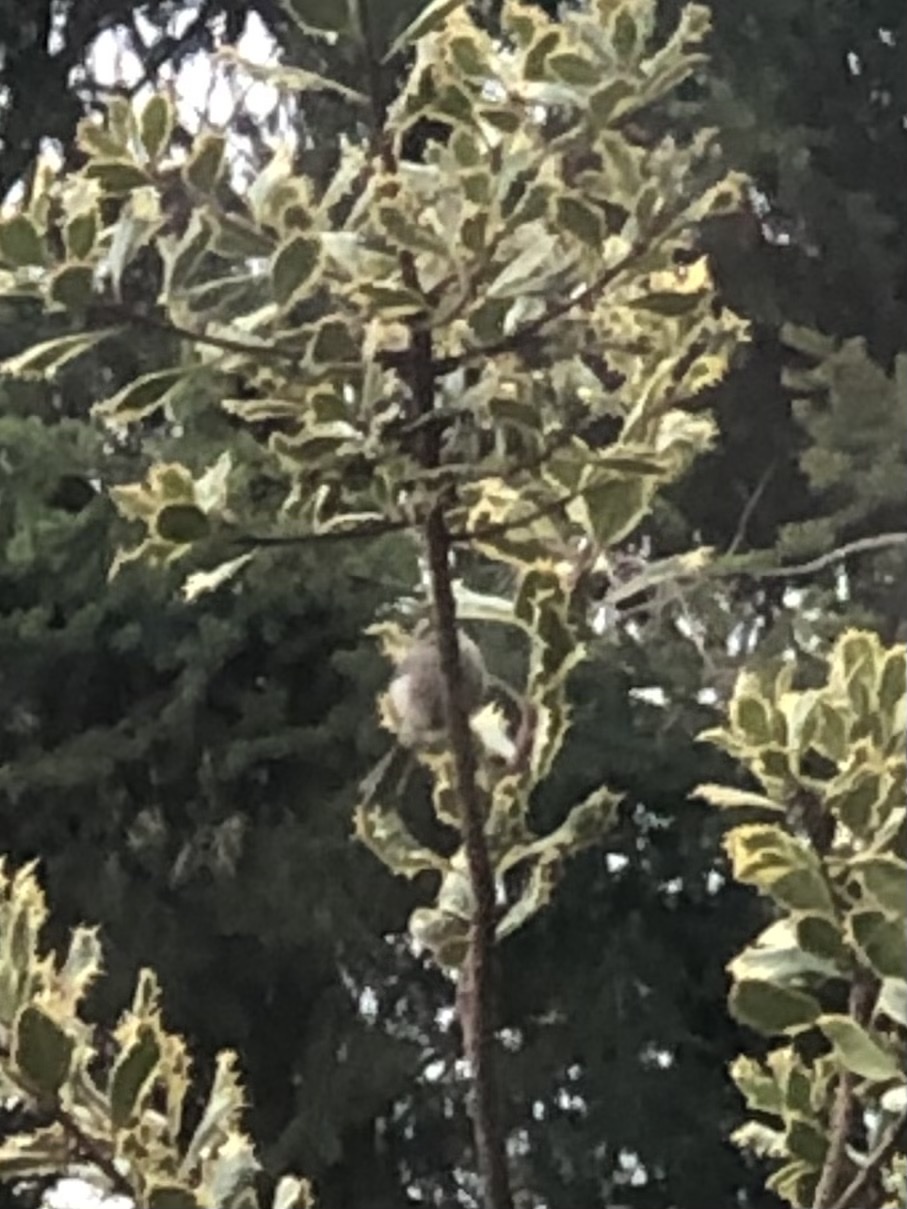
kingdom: Animalia
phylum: Chordata
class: Aves
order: Passeriformes
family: Aegithalidae
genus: Psaltriparus
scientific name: Psaltriparus minimus
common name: American bushtit
